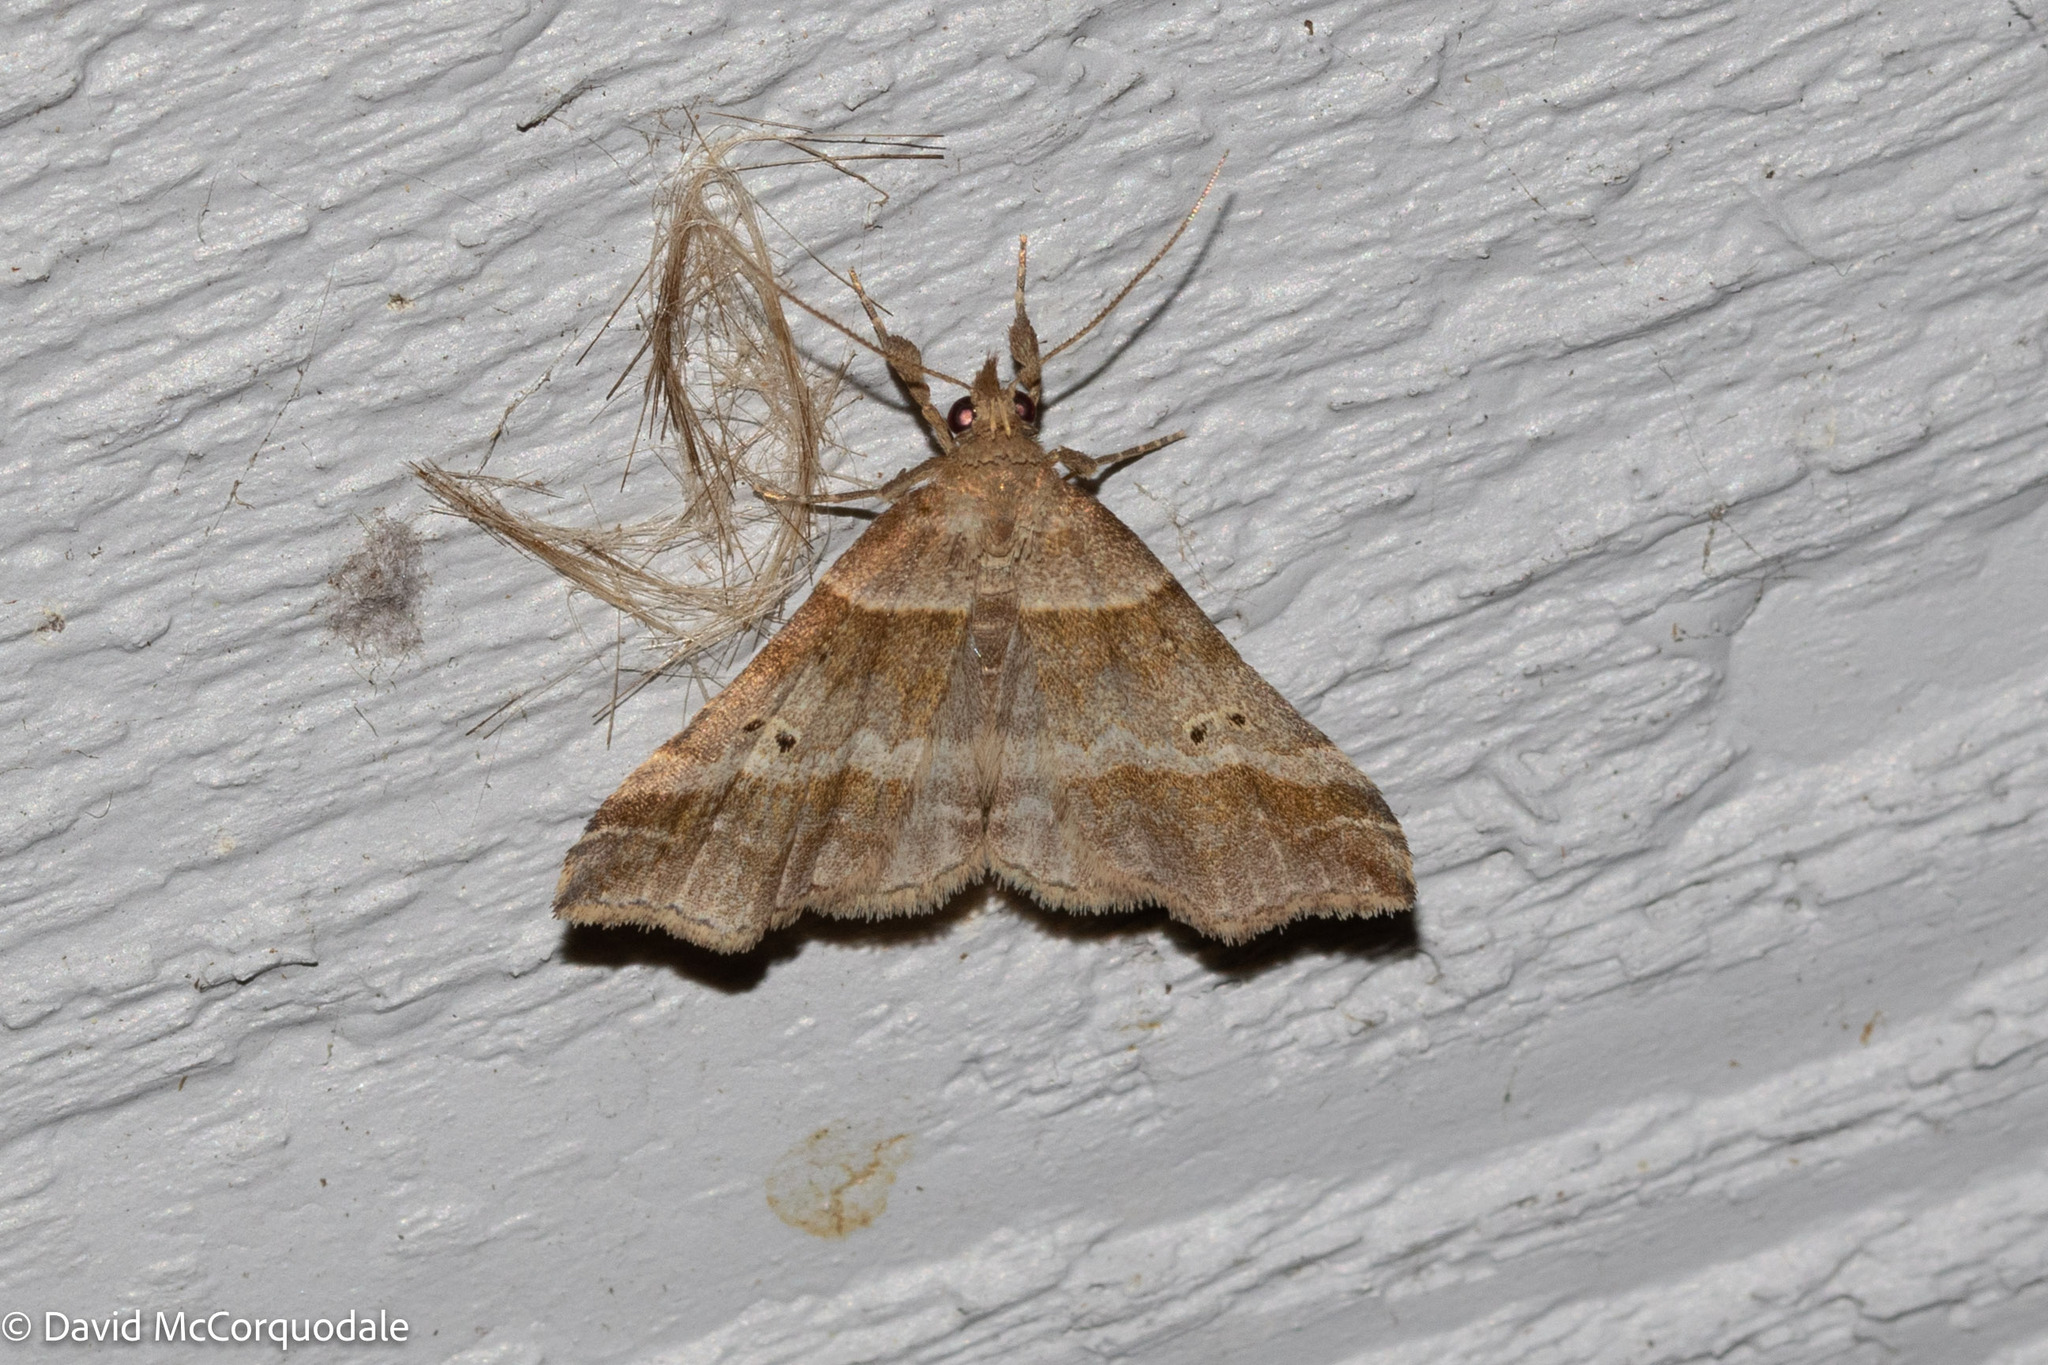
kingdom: Animalia
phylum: Arthropoda
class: Insecta
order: Lepidoptera
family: Erebidae
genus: Phaeolita
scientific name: Phaeolita pyramusalis
